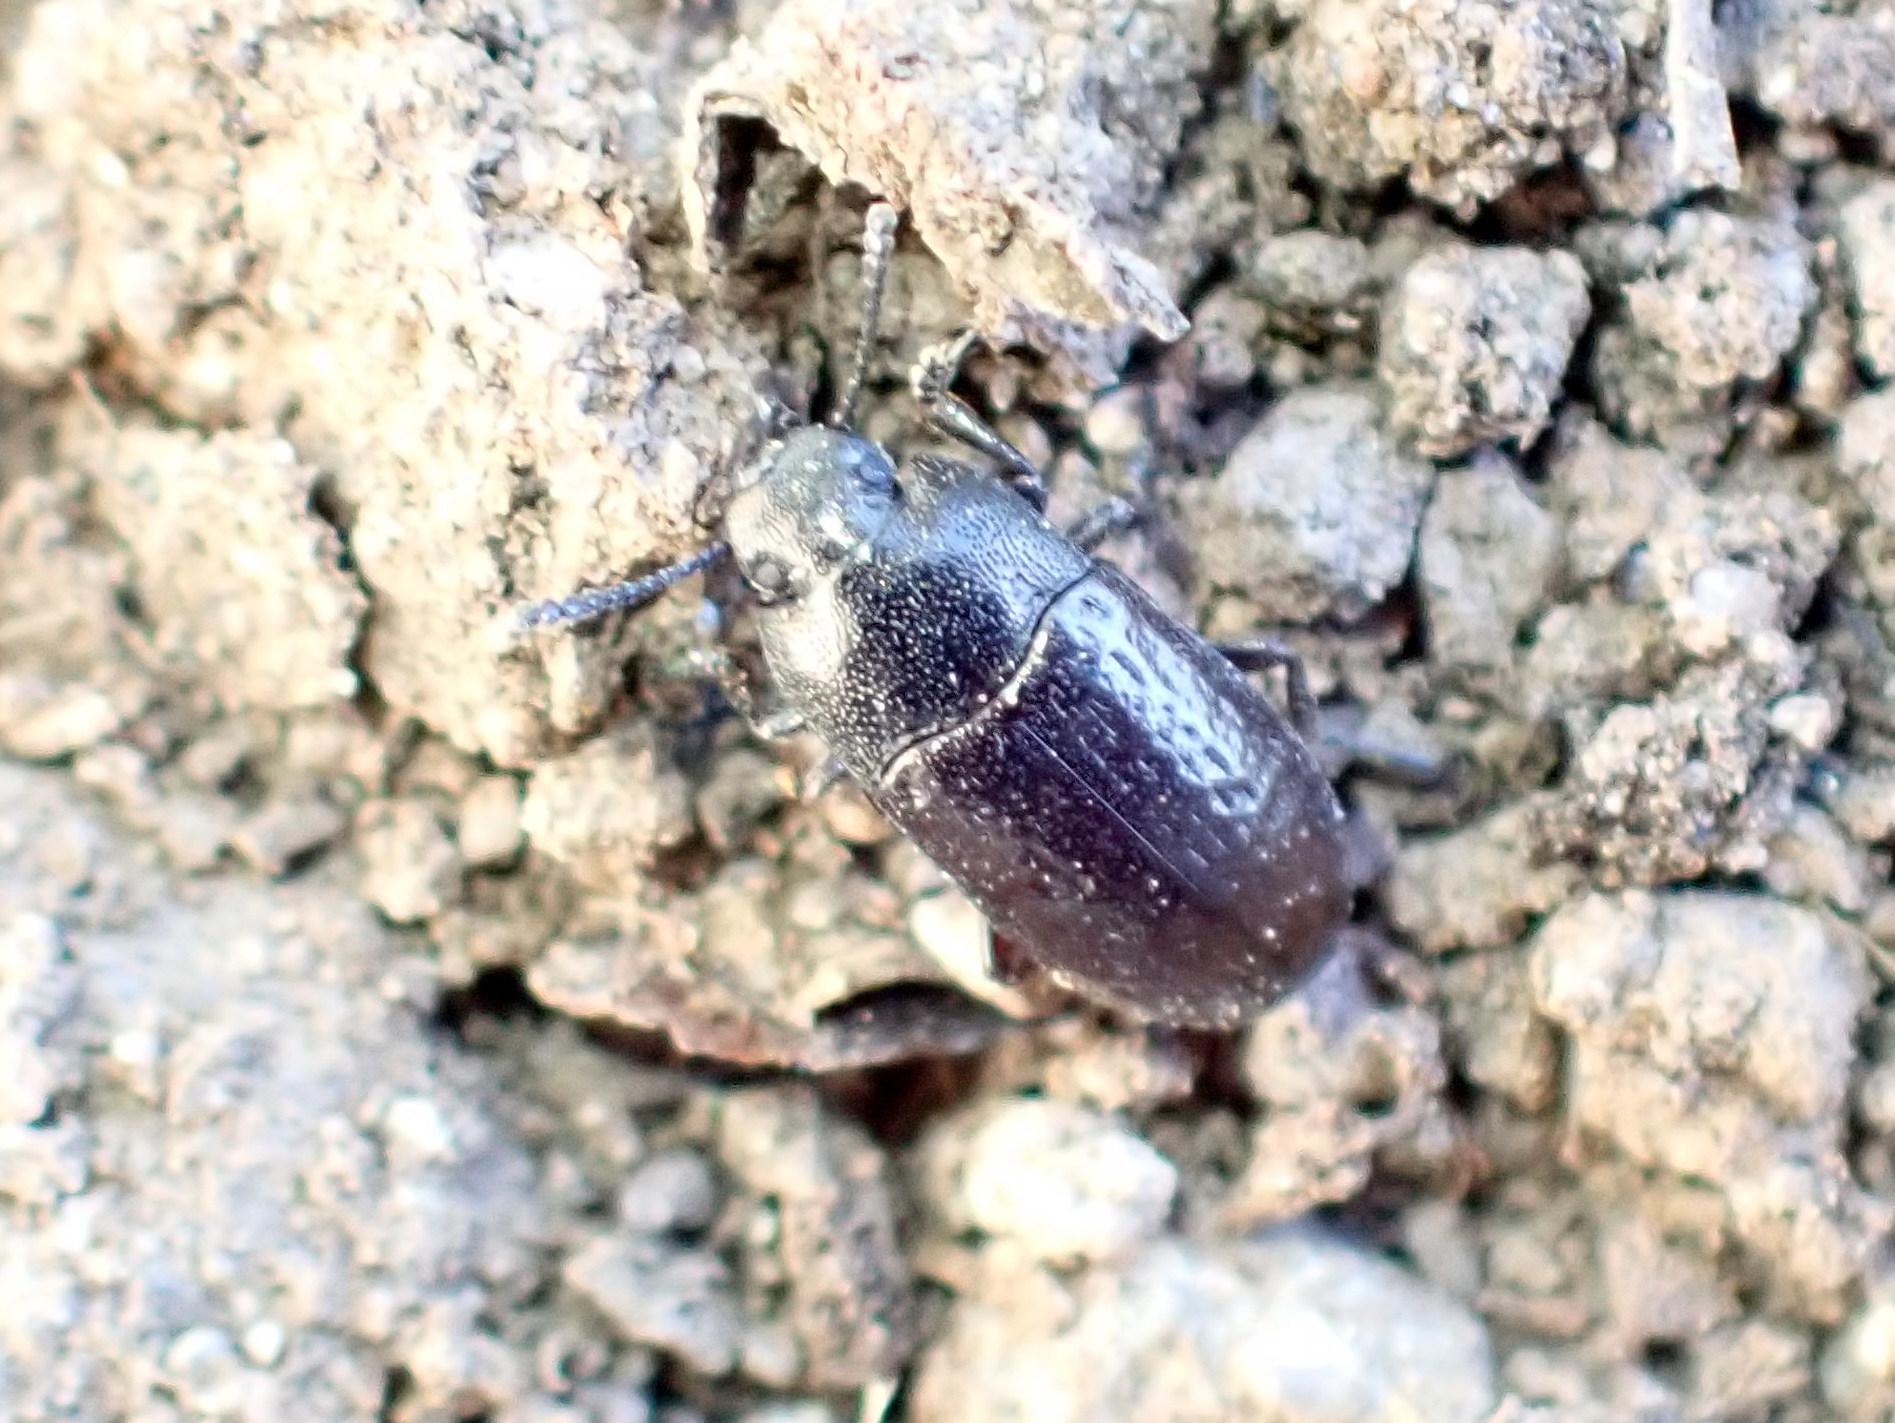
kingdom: Animalia
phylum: Arthropoda
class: Insecta
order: Coleoptera
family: Tenebrionidae
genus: Blapstinus
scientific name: Blapstinus metallicus
